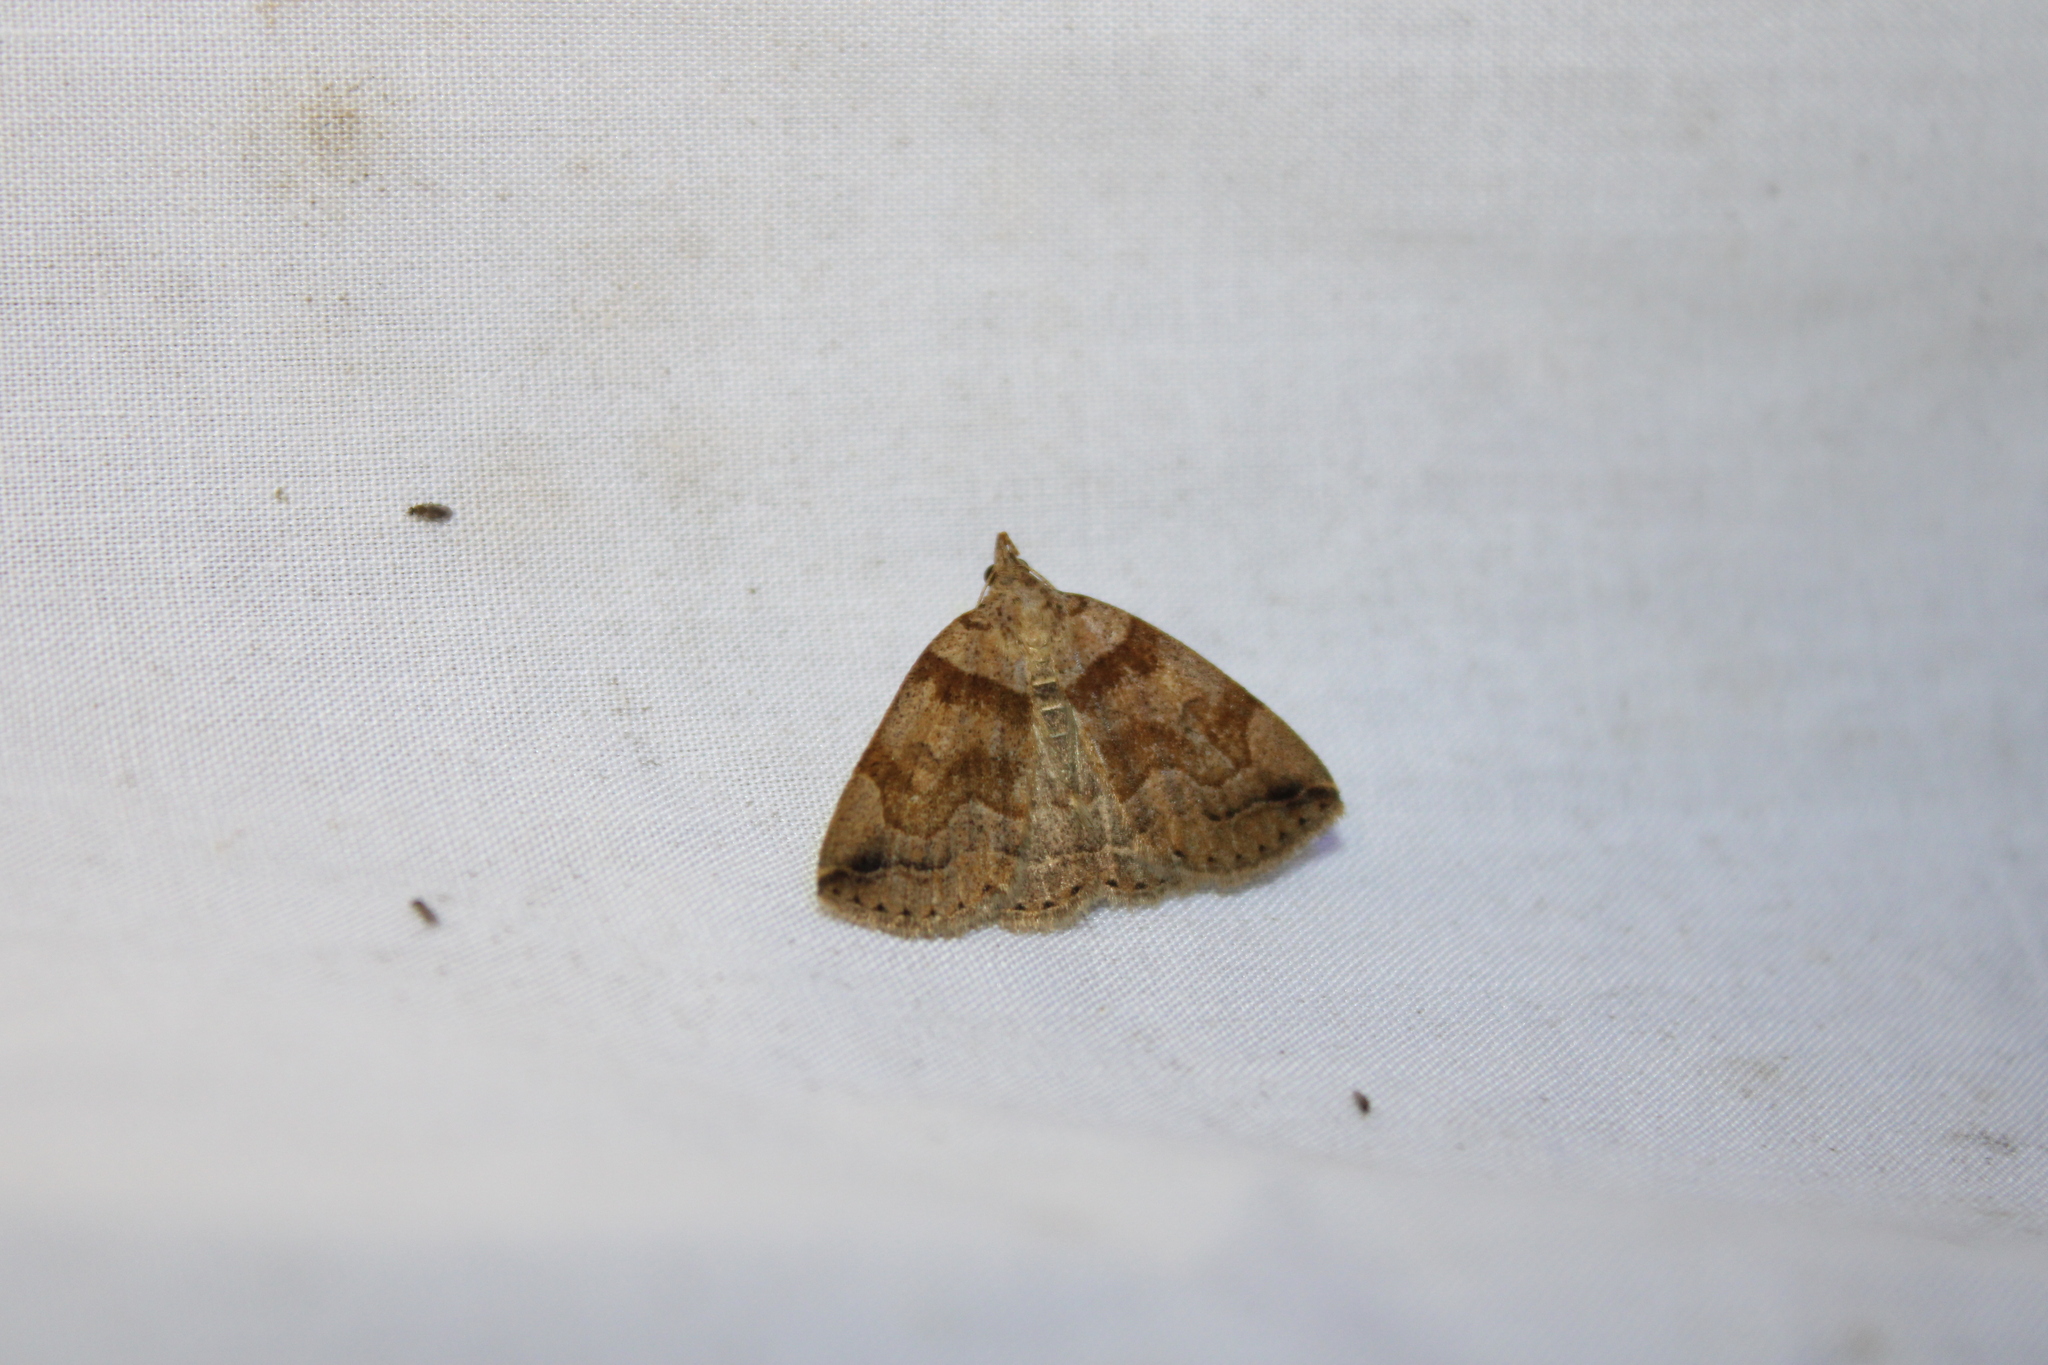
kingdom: Animalia
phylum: Arthropoda
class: Insecta
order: Lepidoptera
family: Erebidae
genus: Zanclognatha
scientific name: Zanclognatha laevigata
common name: Variable fan-foot
